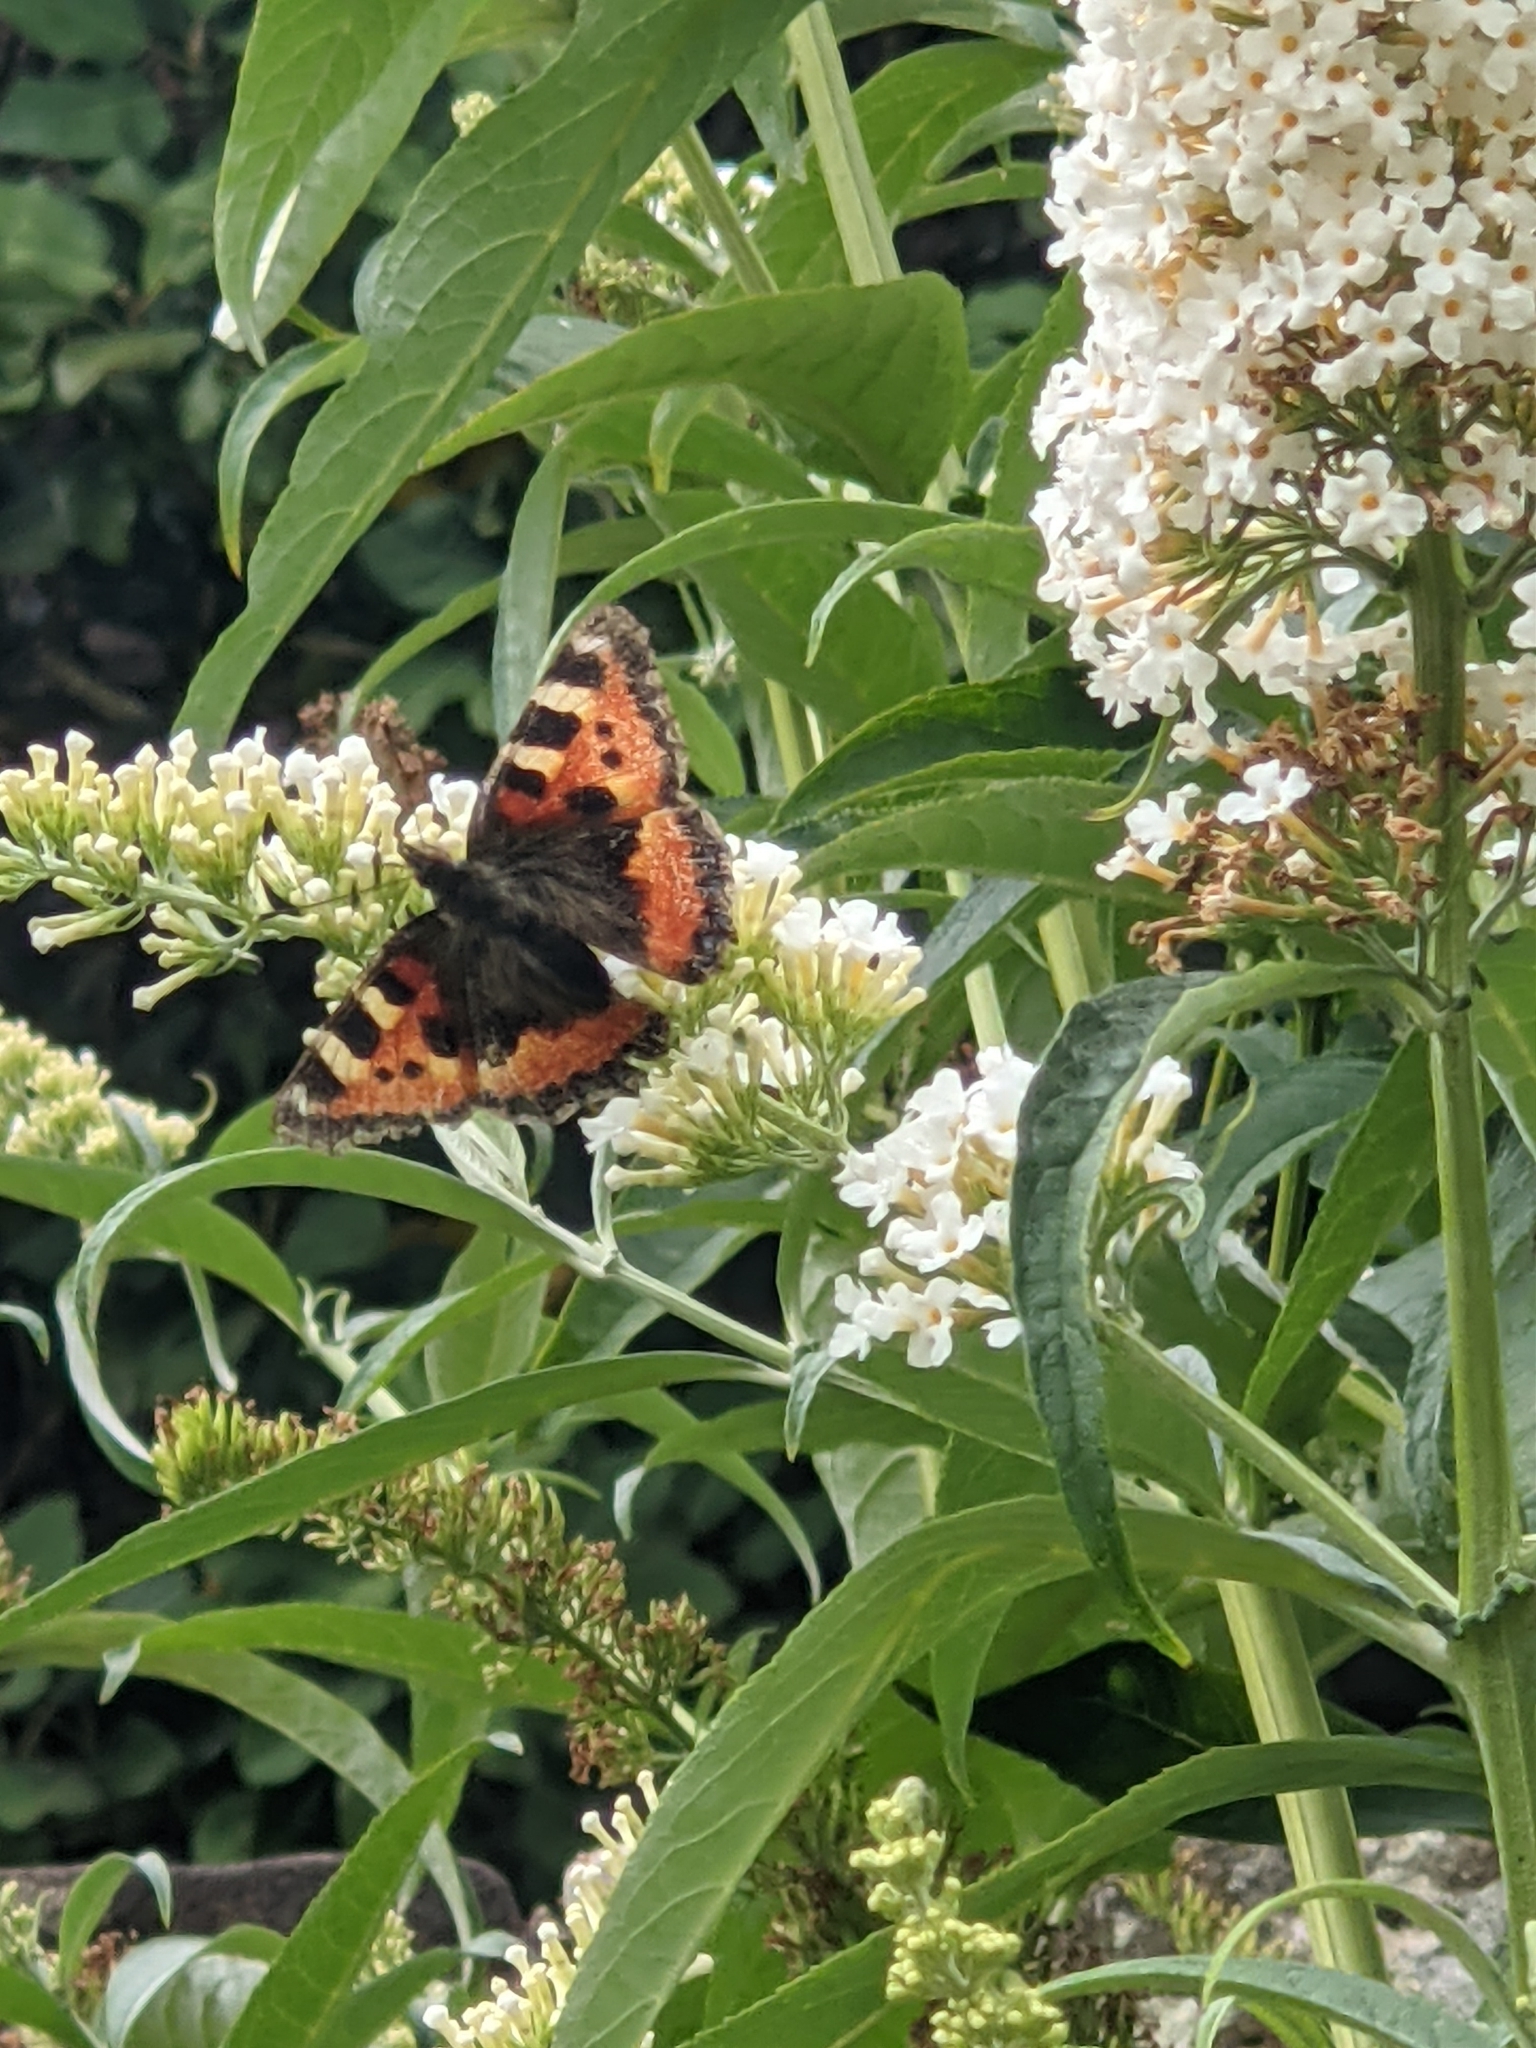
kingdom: Animalia
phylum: Arthropoda
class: Insecta
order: Lepidoptera
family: Nymphalidae
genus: Aglais
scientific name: Aglais urticae
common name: Small tortoiseshell
